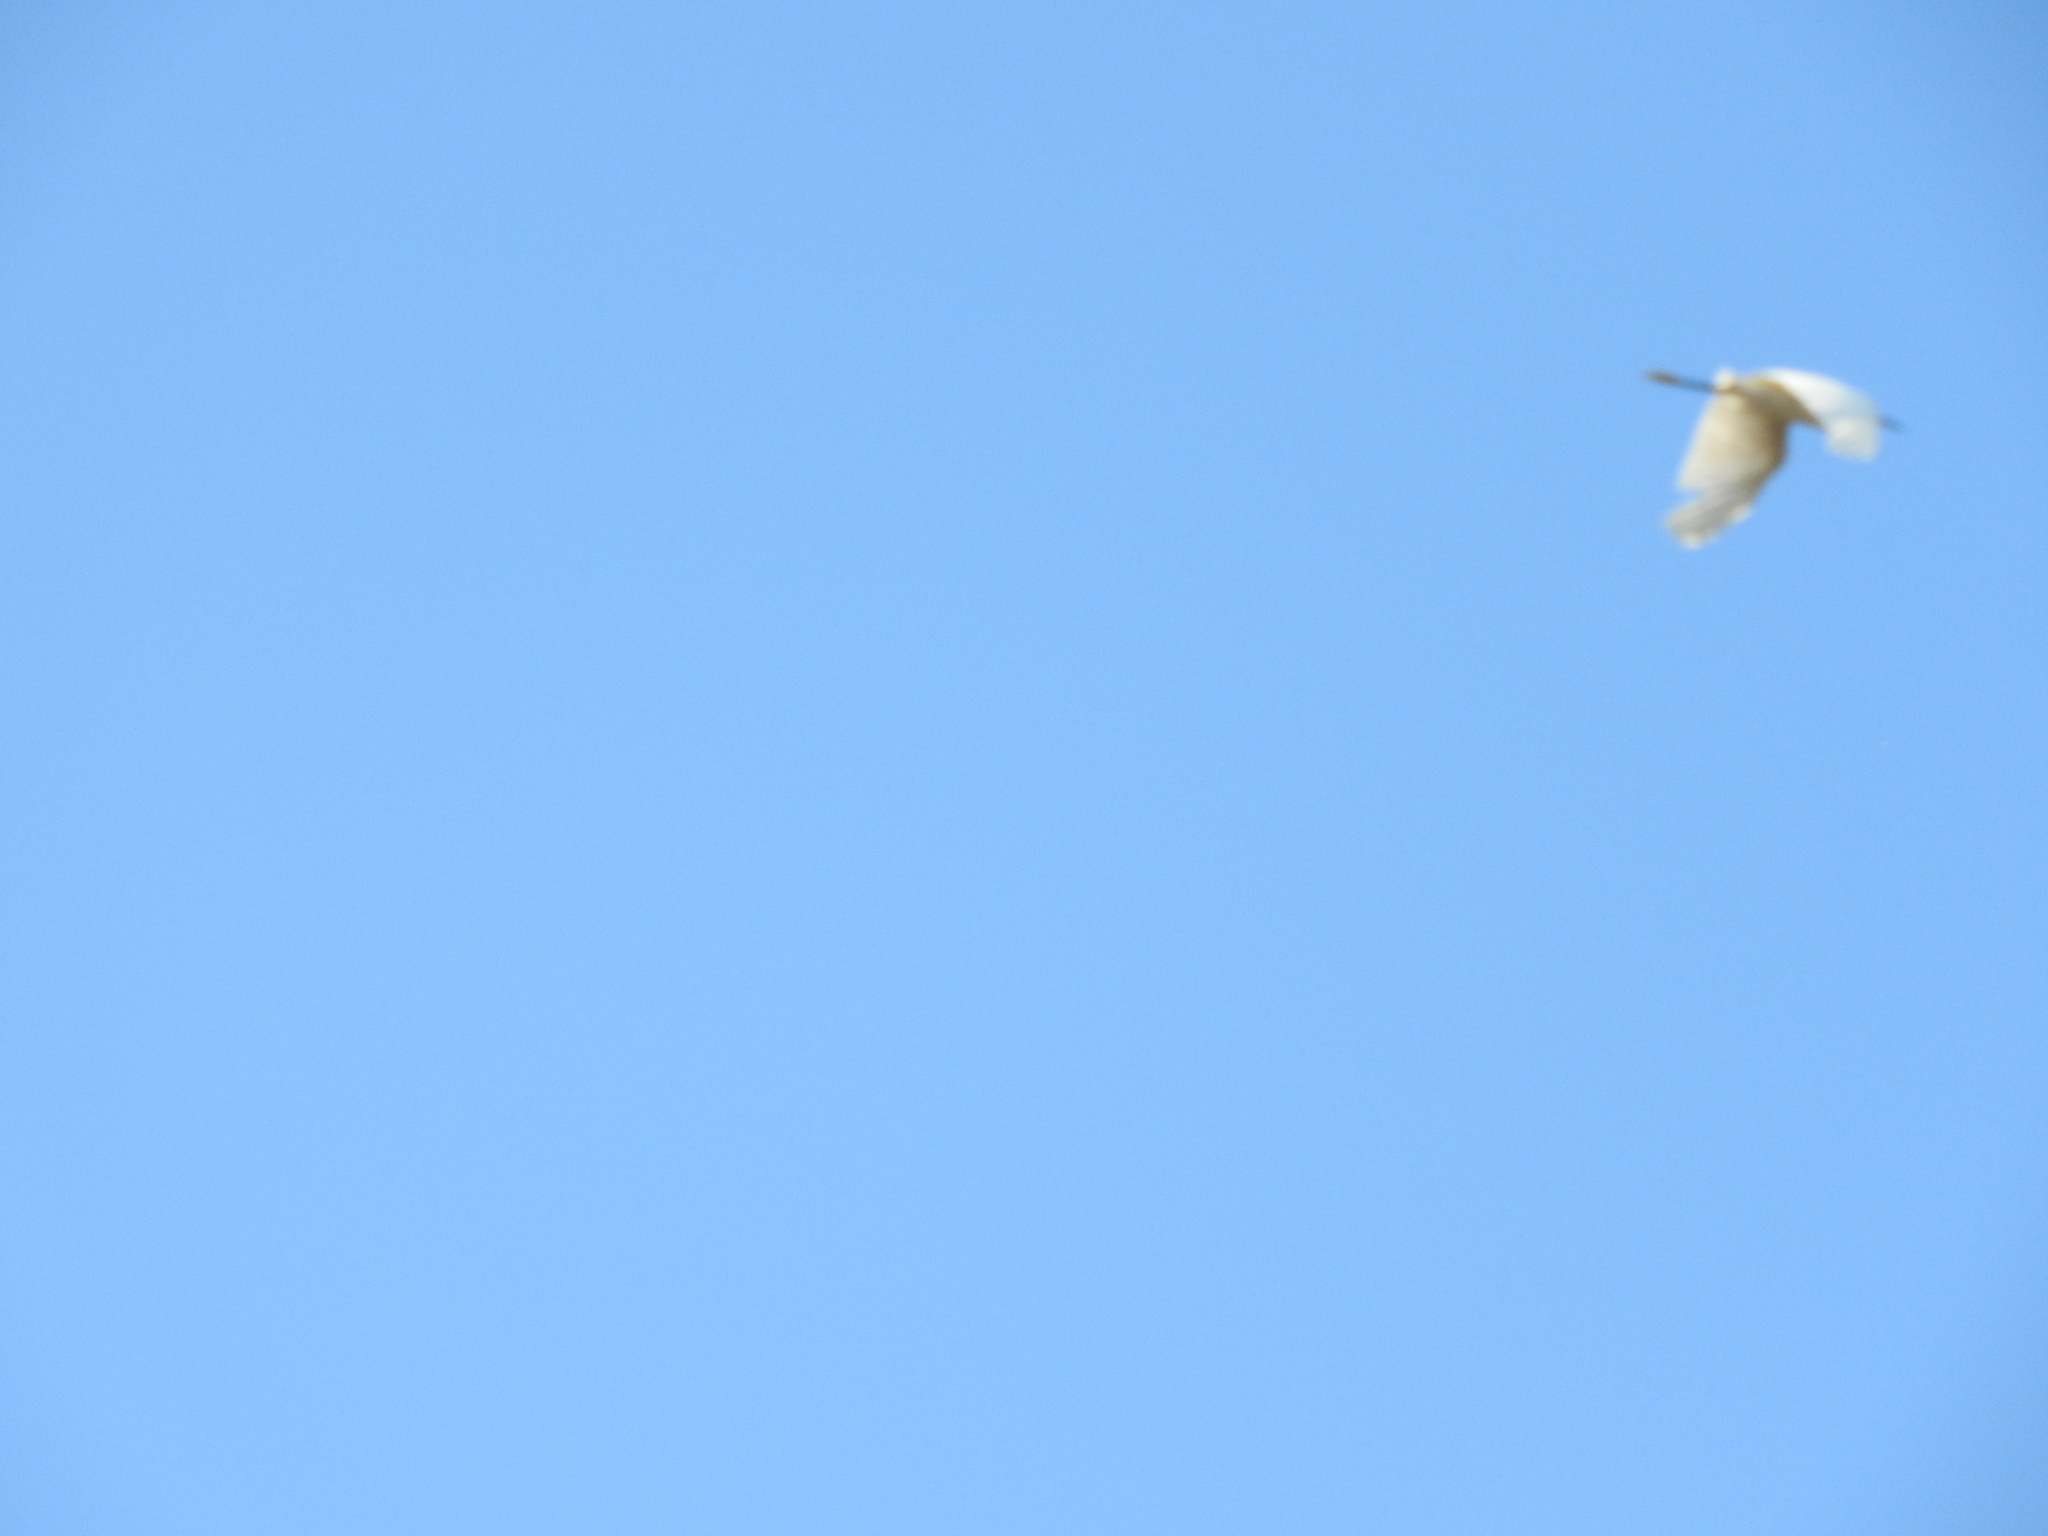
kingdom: Animalia
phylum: Chordata
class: Aves
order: Pelecaniformes
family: Ardeidae
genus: Egretta
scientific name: Egretta thula
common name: Snowy egret
